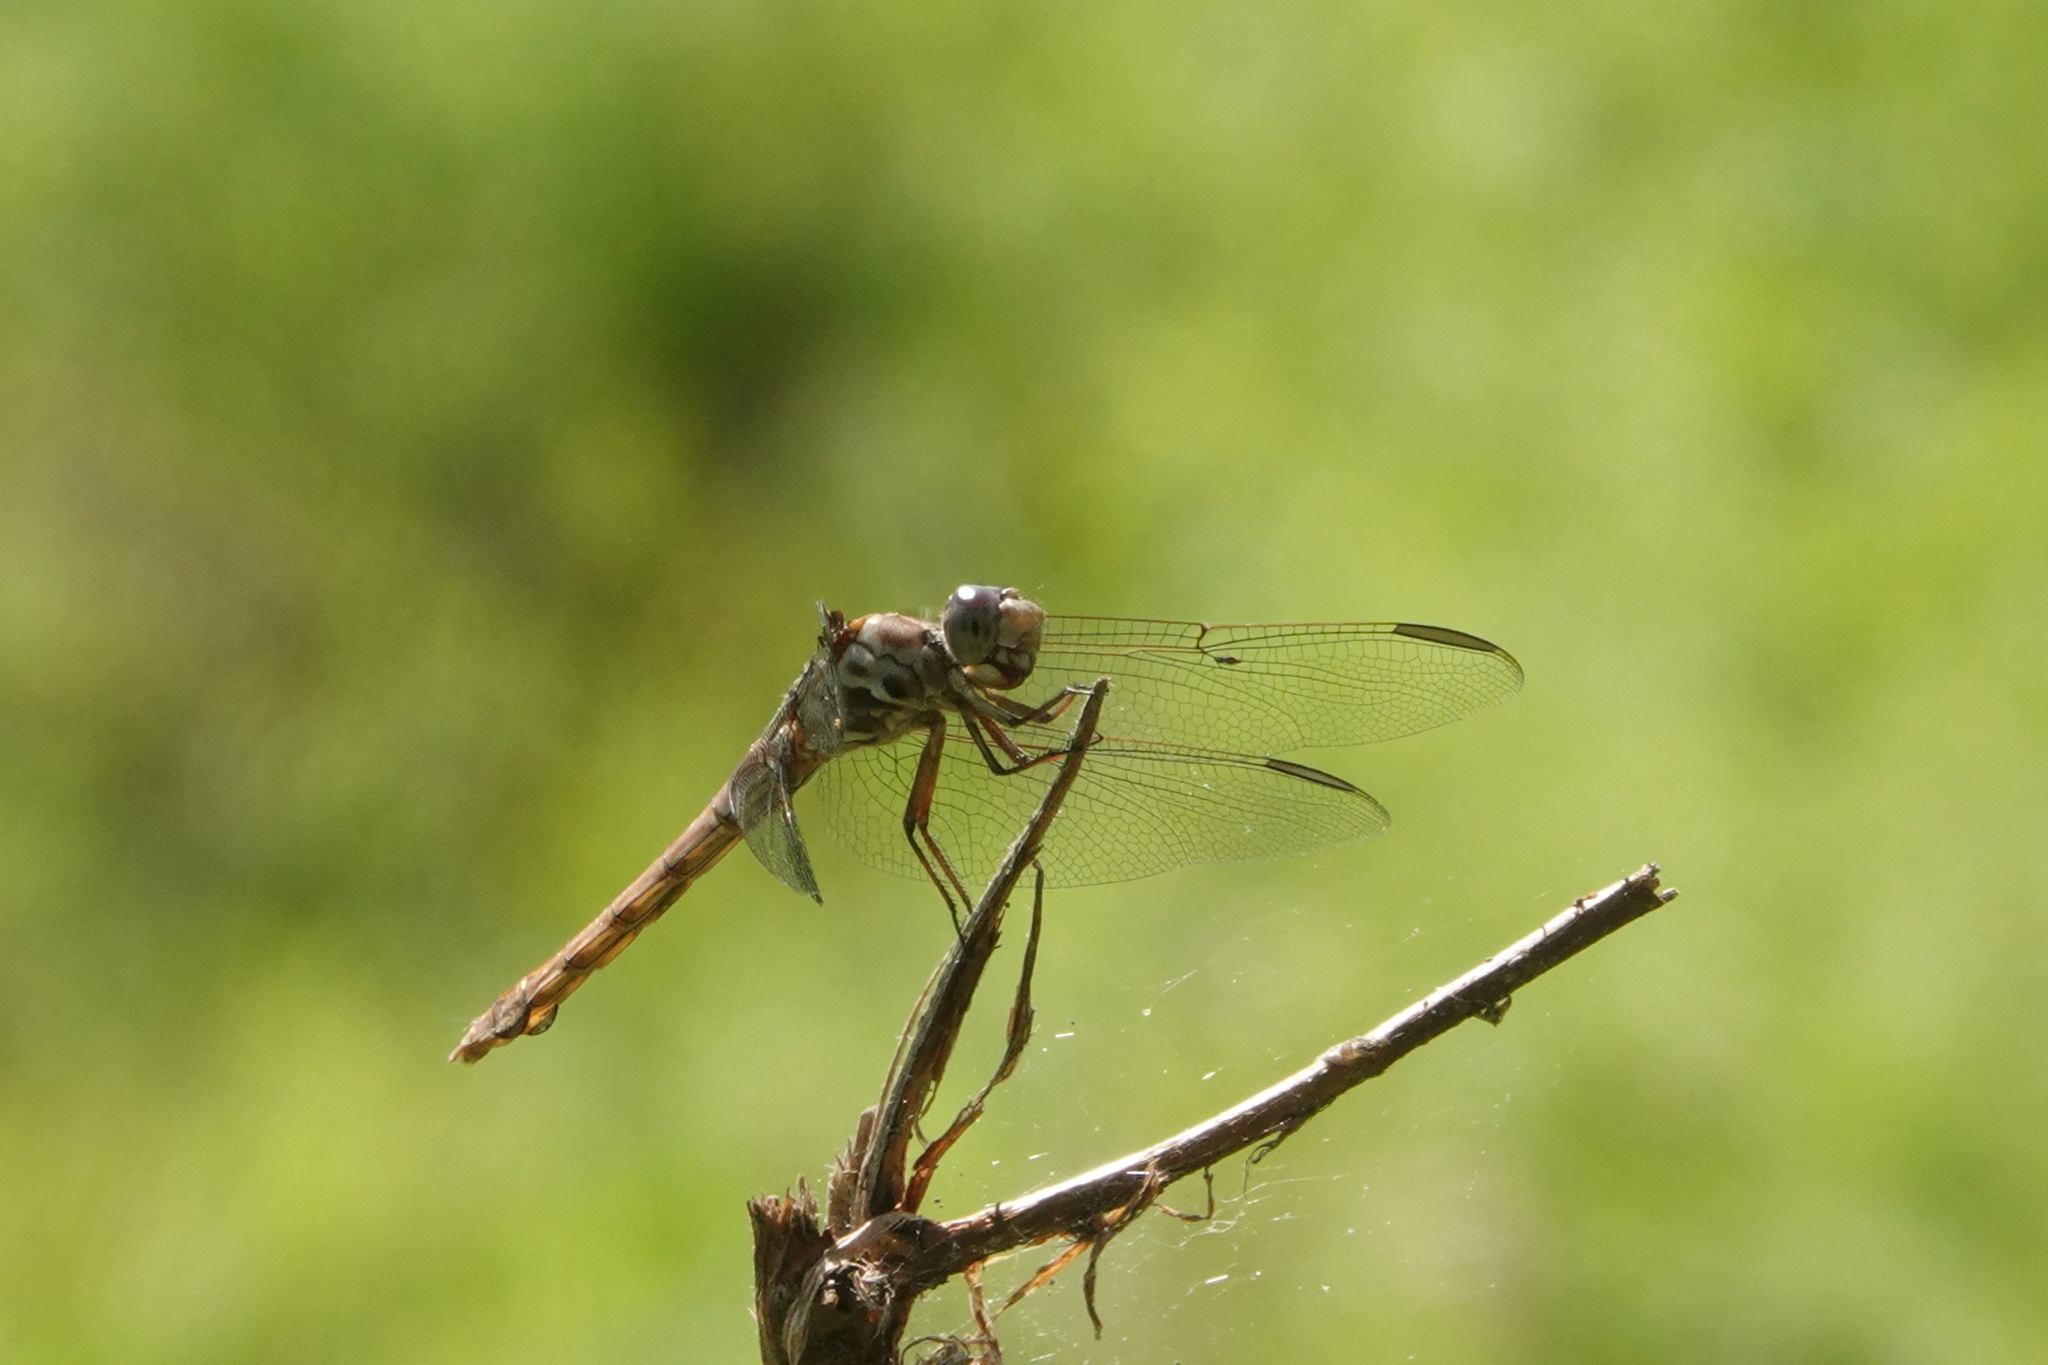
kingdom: Animalia
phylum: Arthropoda
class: Insecta
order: Odonata
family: Libellulidae
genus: Orthemis
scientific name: Orthemis ferruginea
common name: Roseate skimmer
